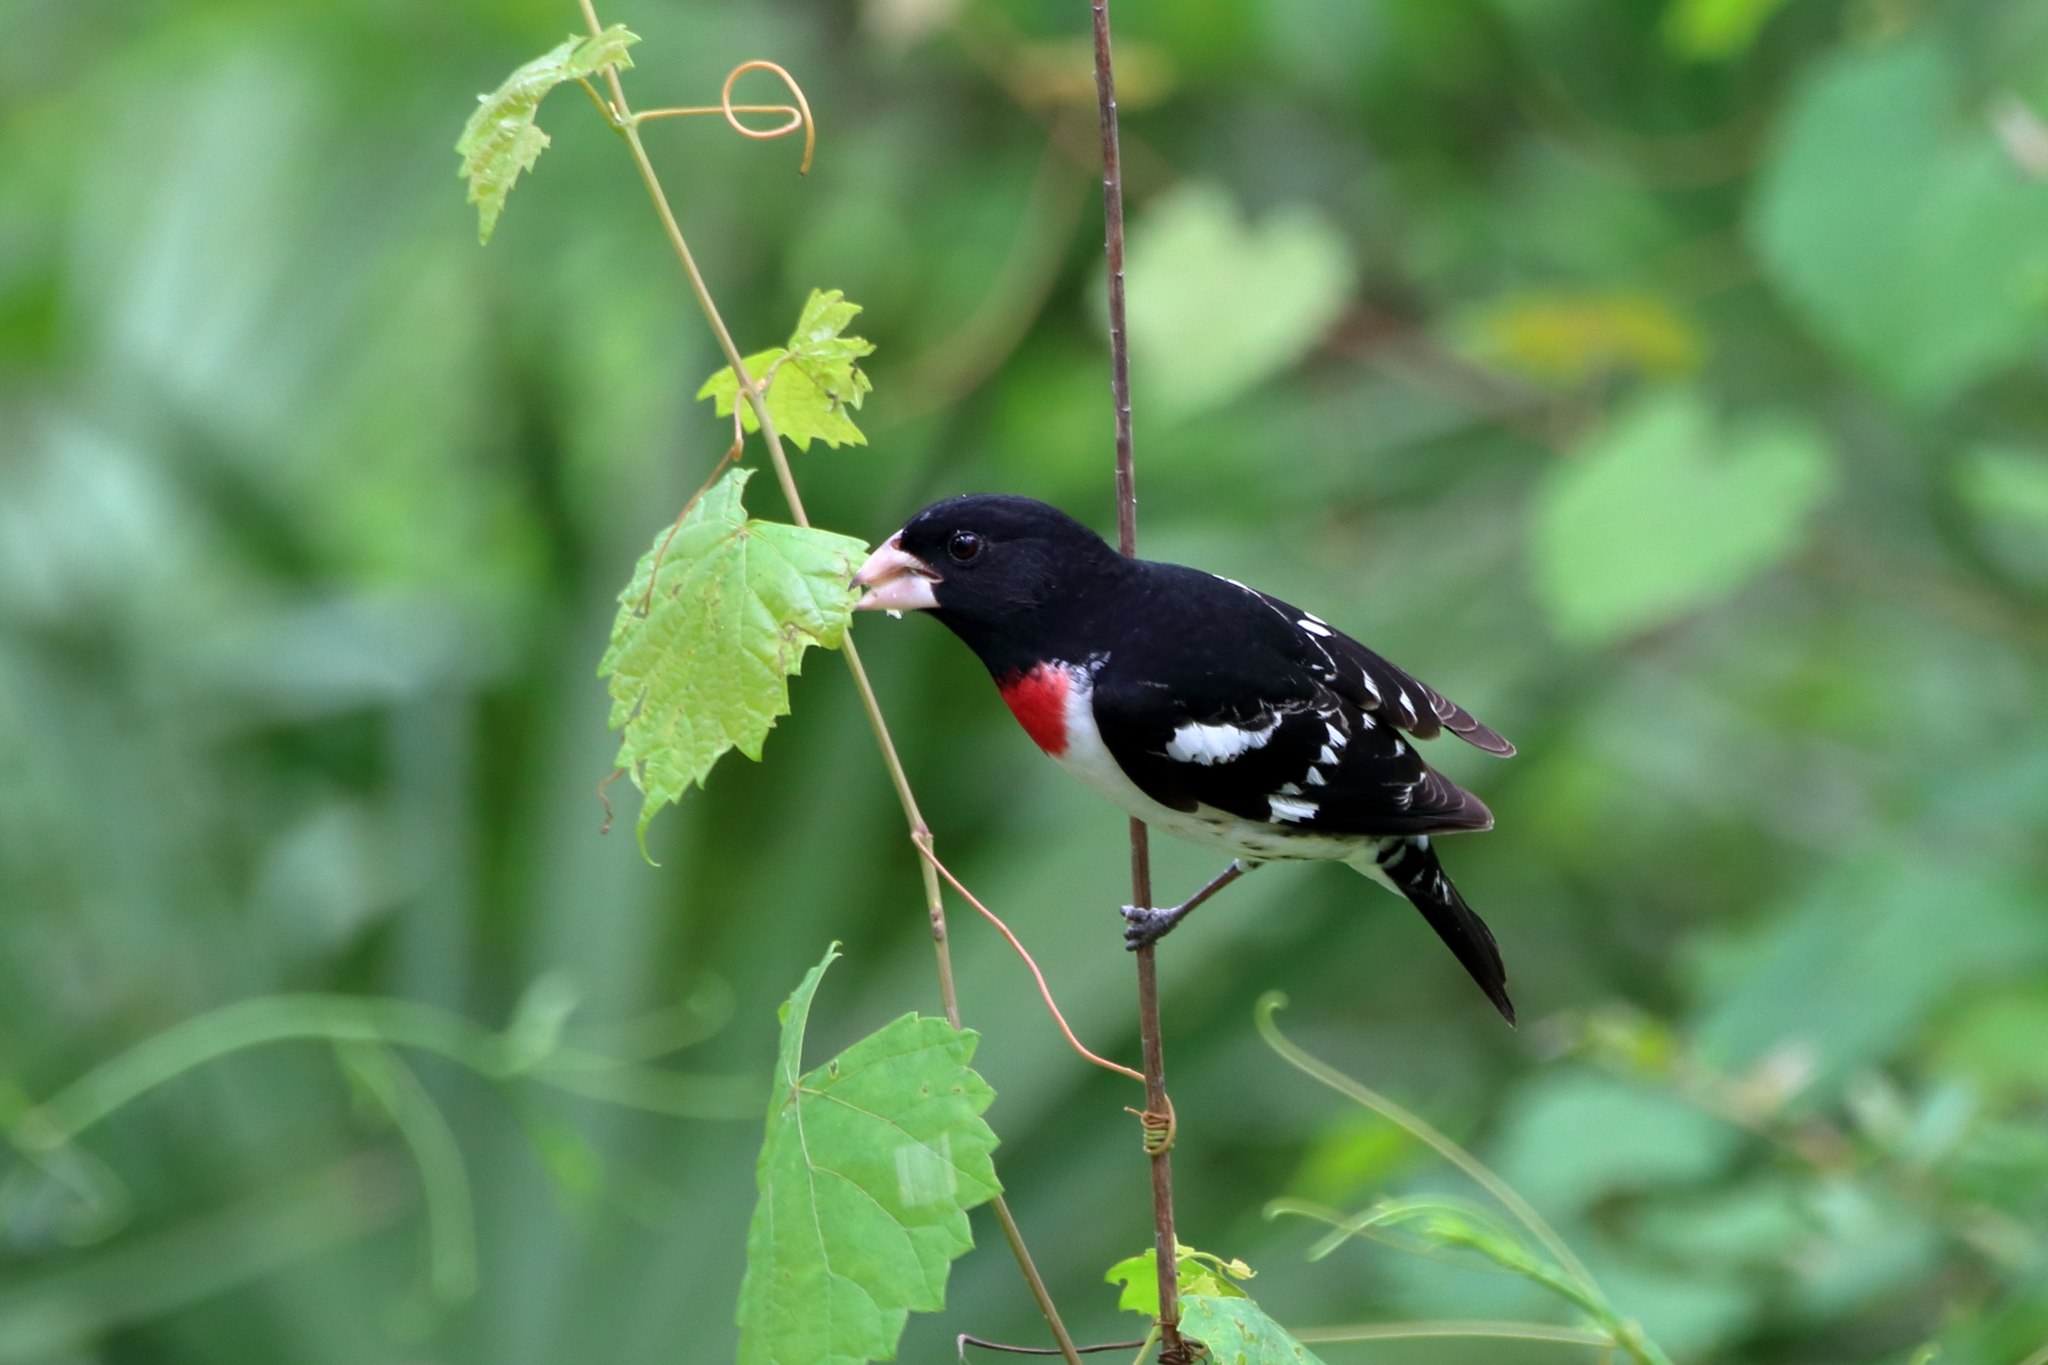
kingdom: Animalia
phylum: Chordata
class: Aves
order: Passeriformes
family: Cardinalidae
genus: Pheucticus
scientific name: Pheucticus ludovicianus
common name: Rose-breasted grosbeak
